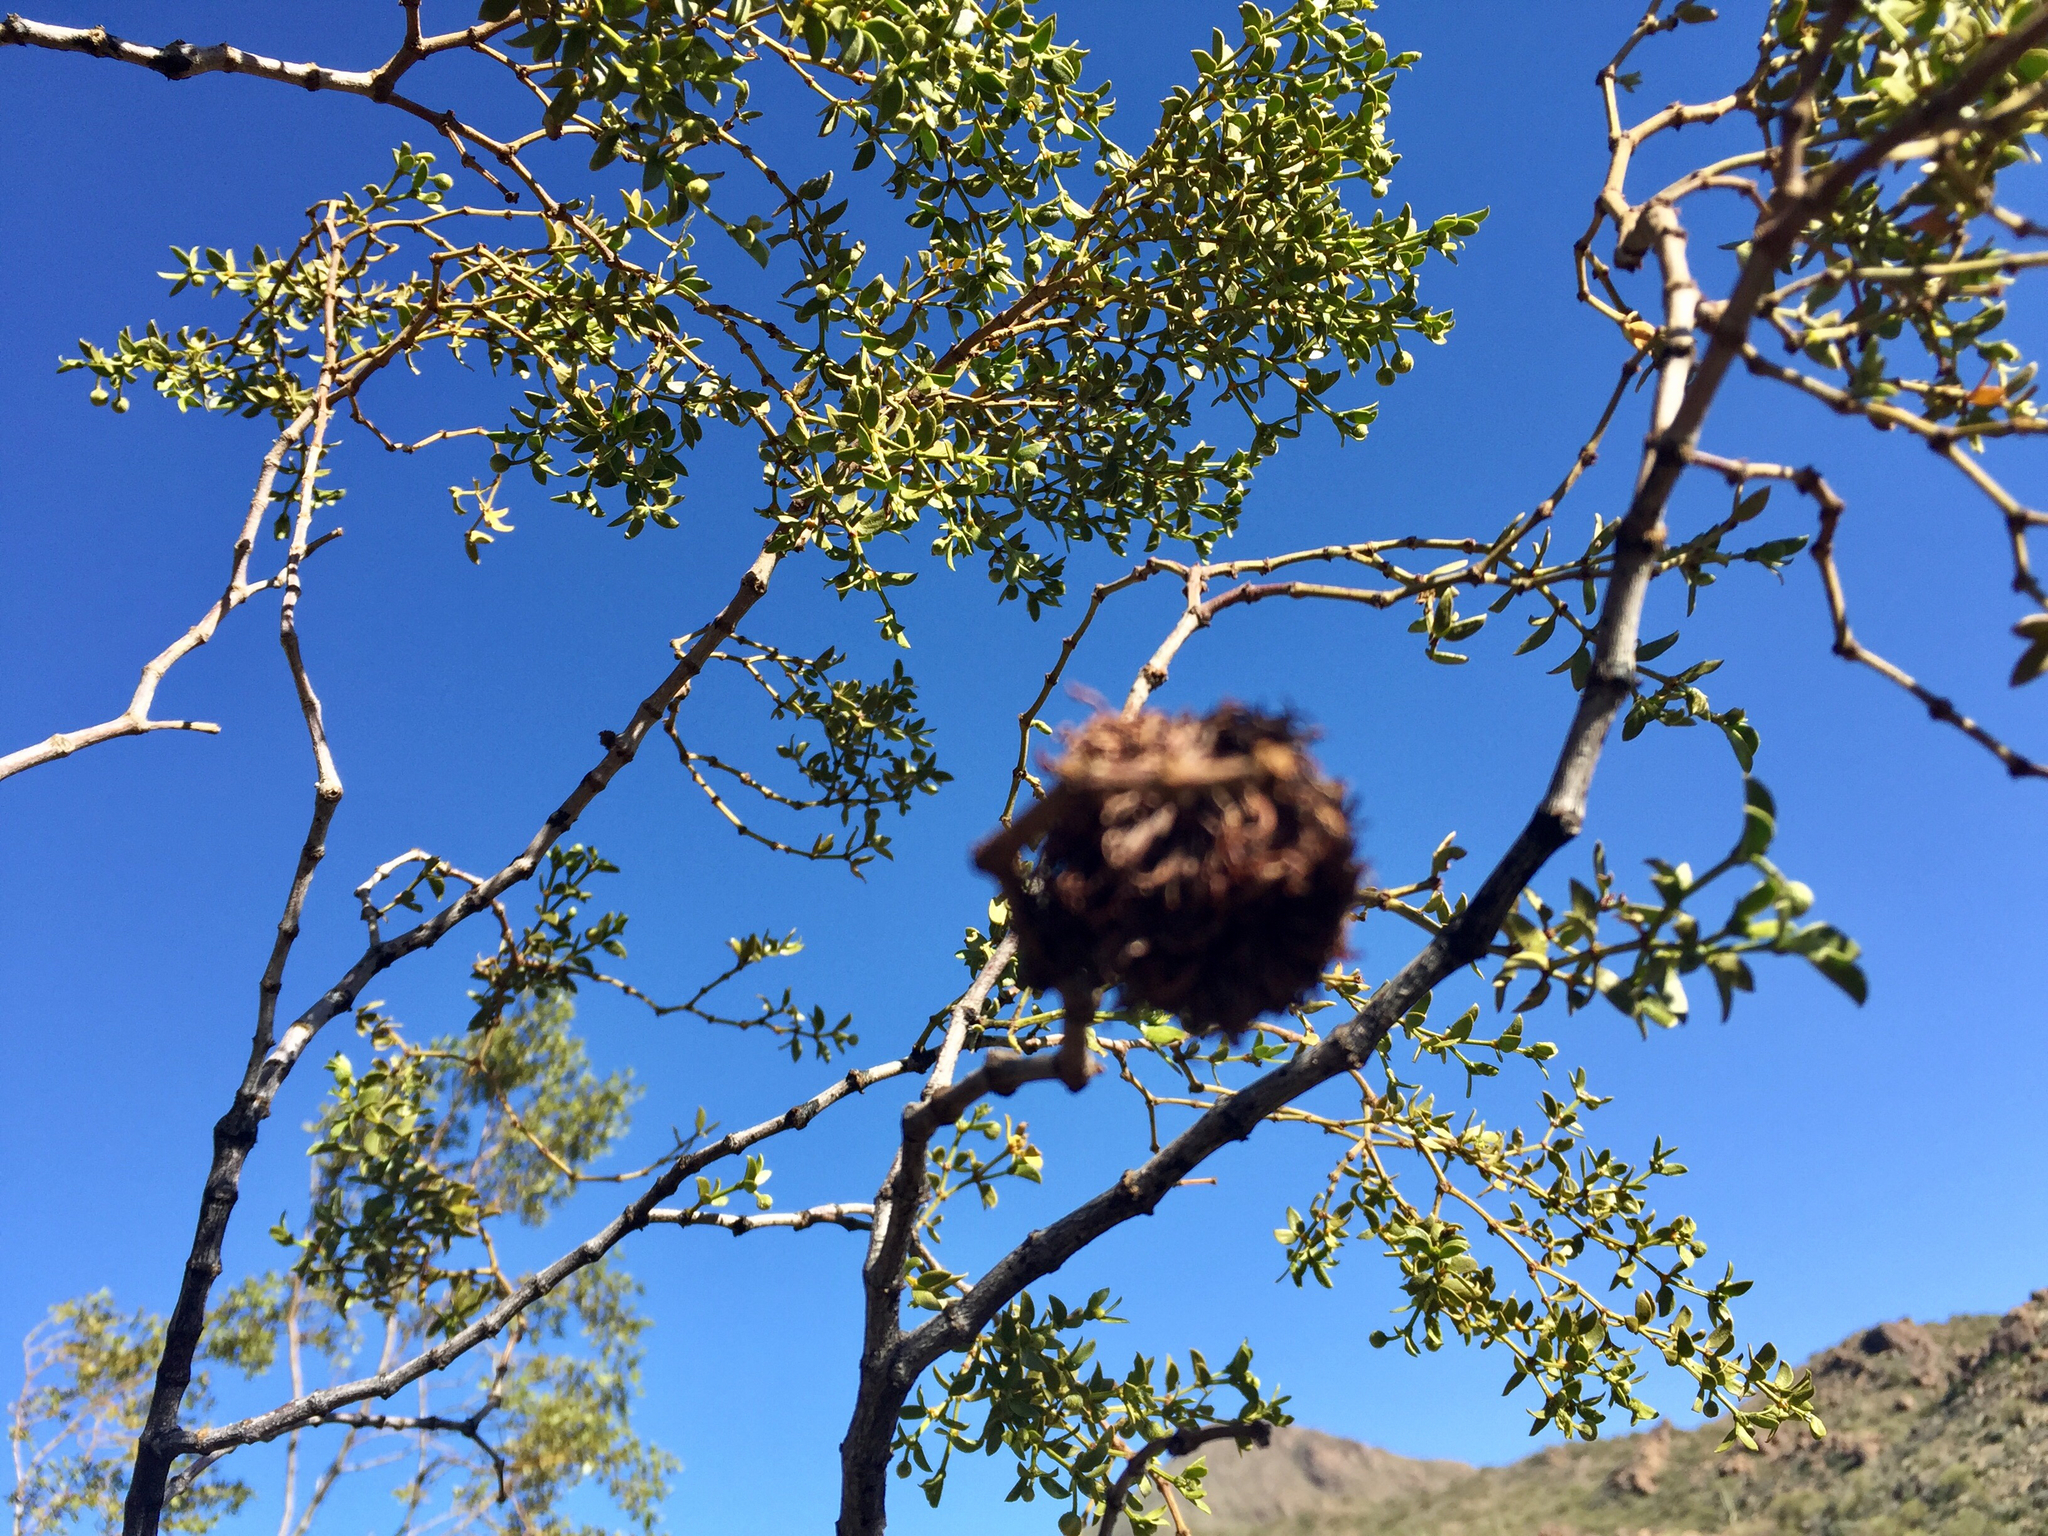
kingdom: Animalia
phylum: Arthropoda
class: Insecta
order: Diptera
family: Cecidomyiidae
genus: Asphondylia
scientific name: Asphondylia auripila
